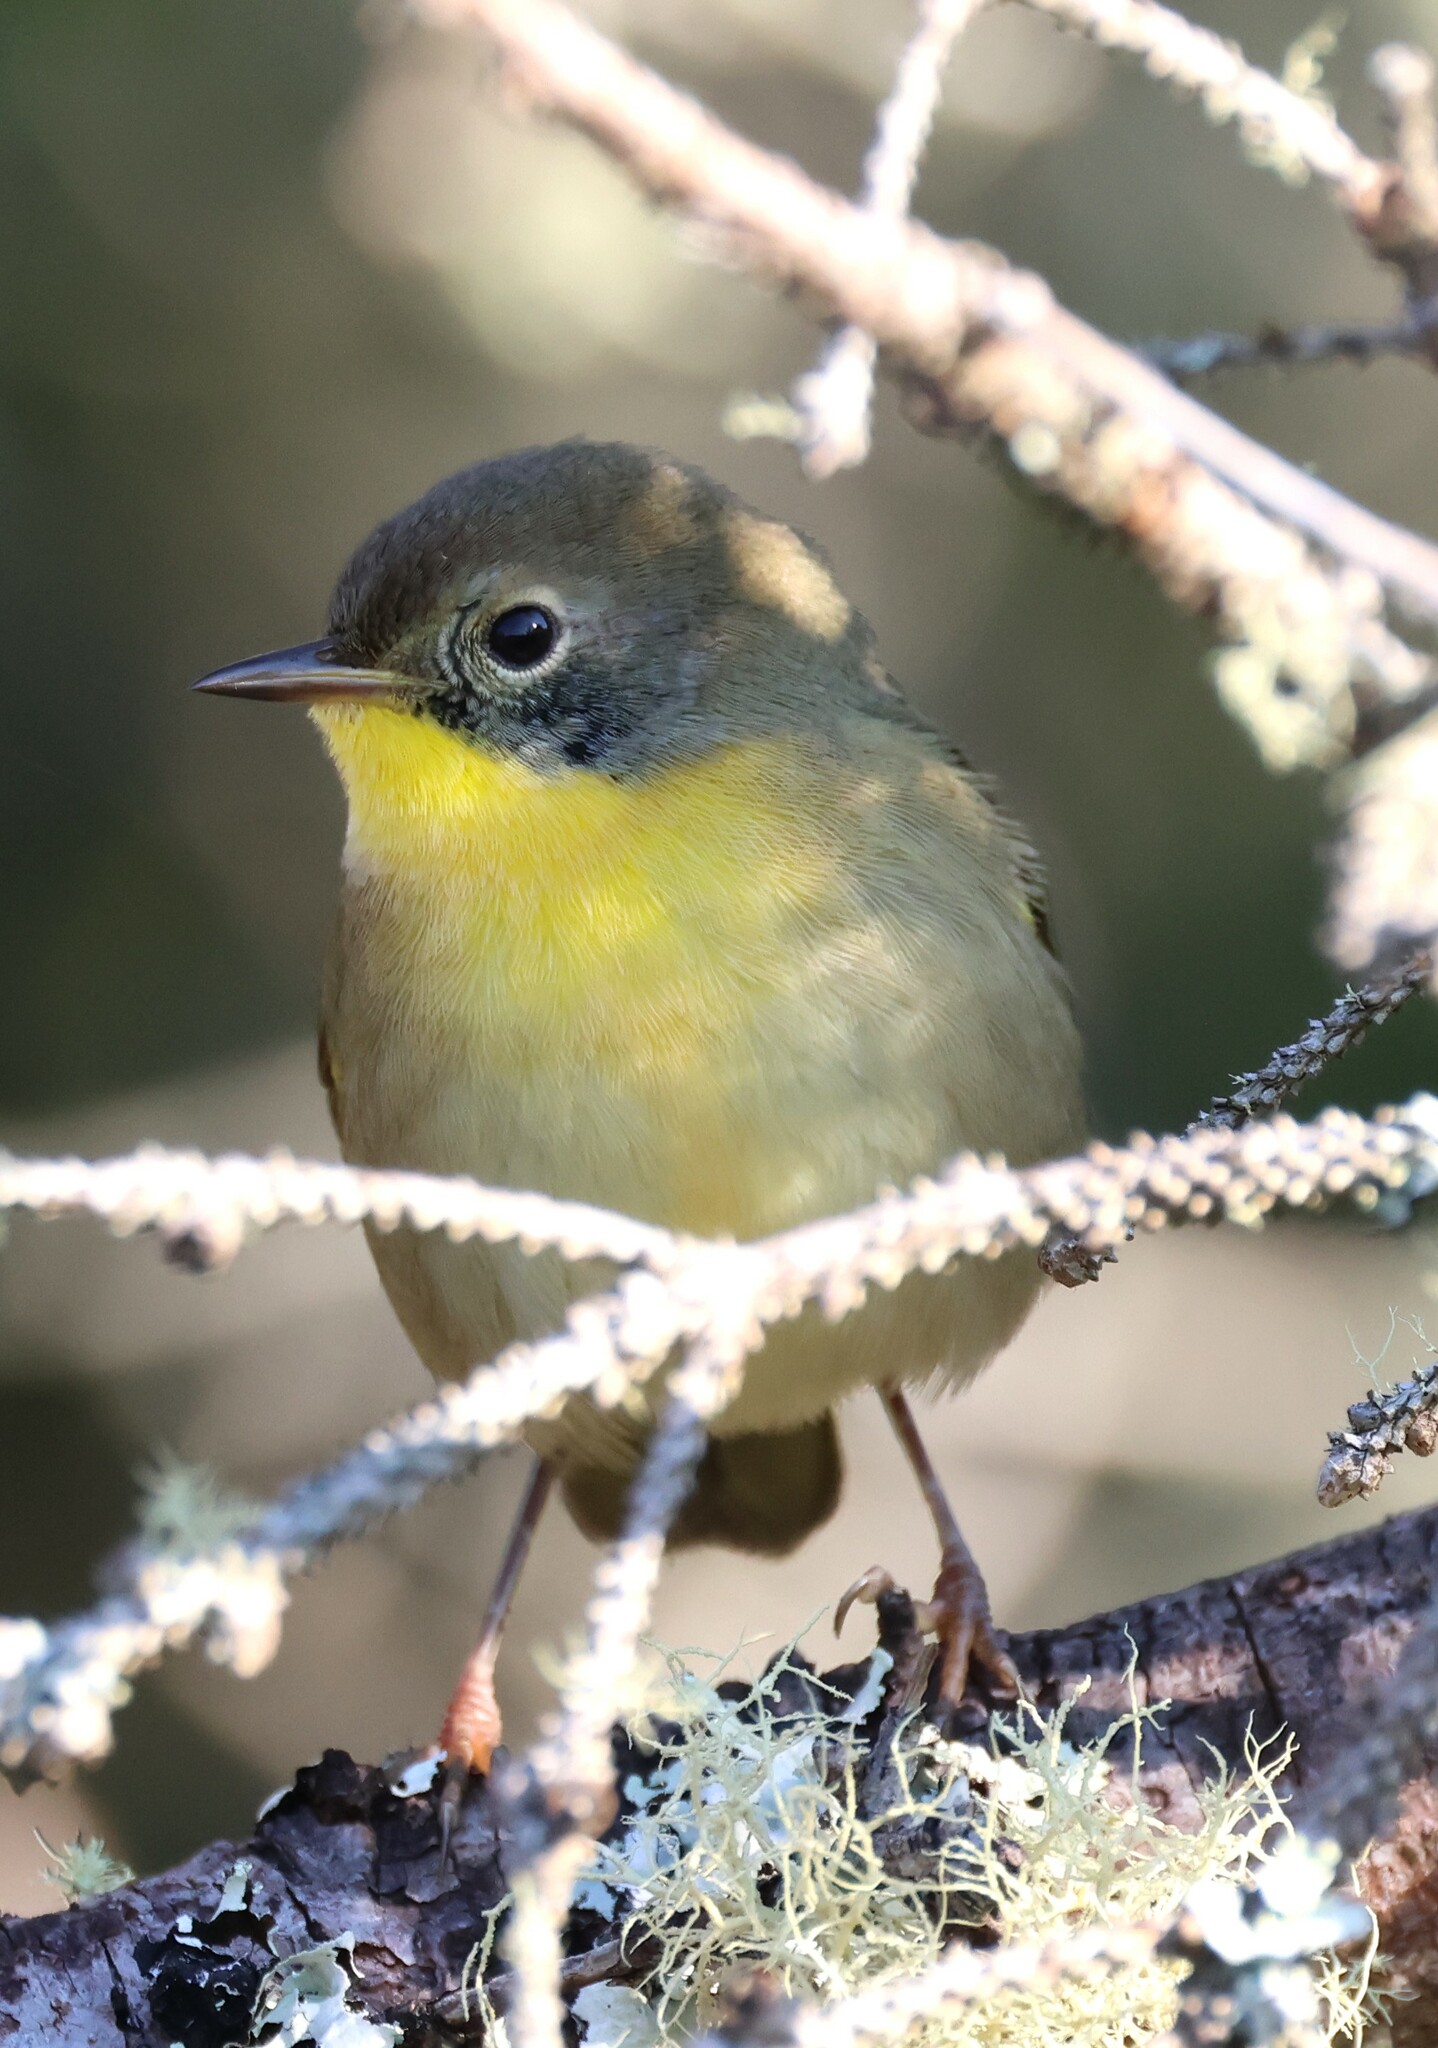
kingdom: Animalia
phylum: Chordata
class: Aves
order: Passeriformes
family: Parulidae
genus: Geothlypis
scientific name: Geothlypis trichas
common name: Common yellowthroat
